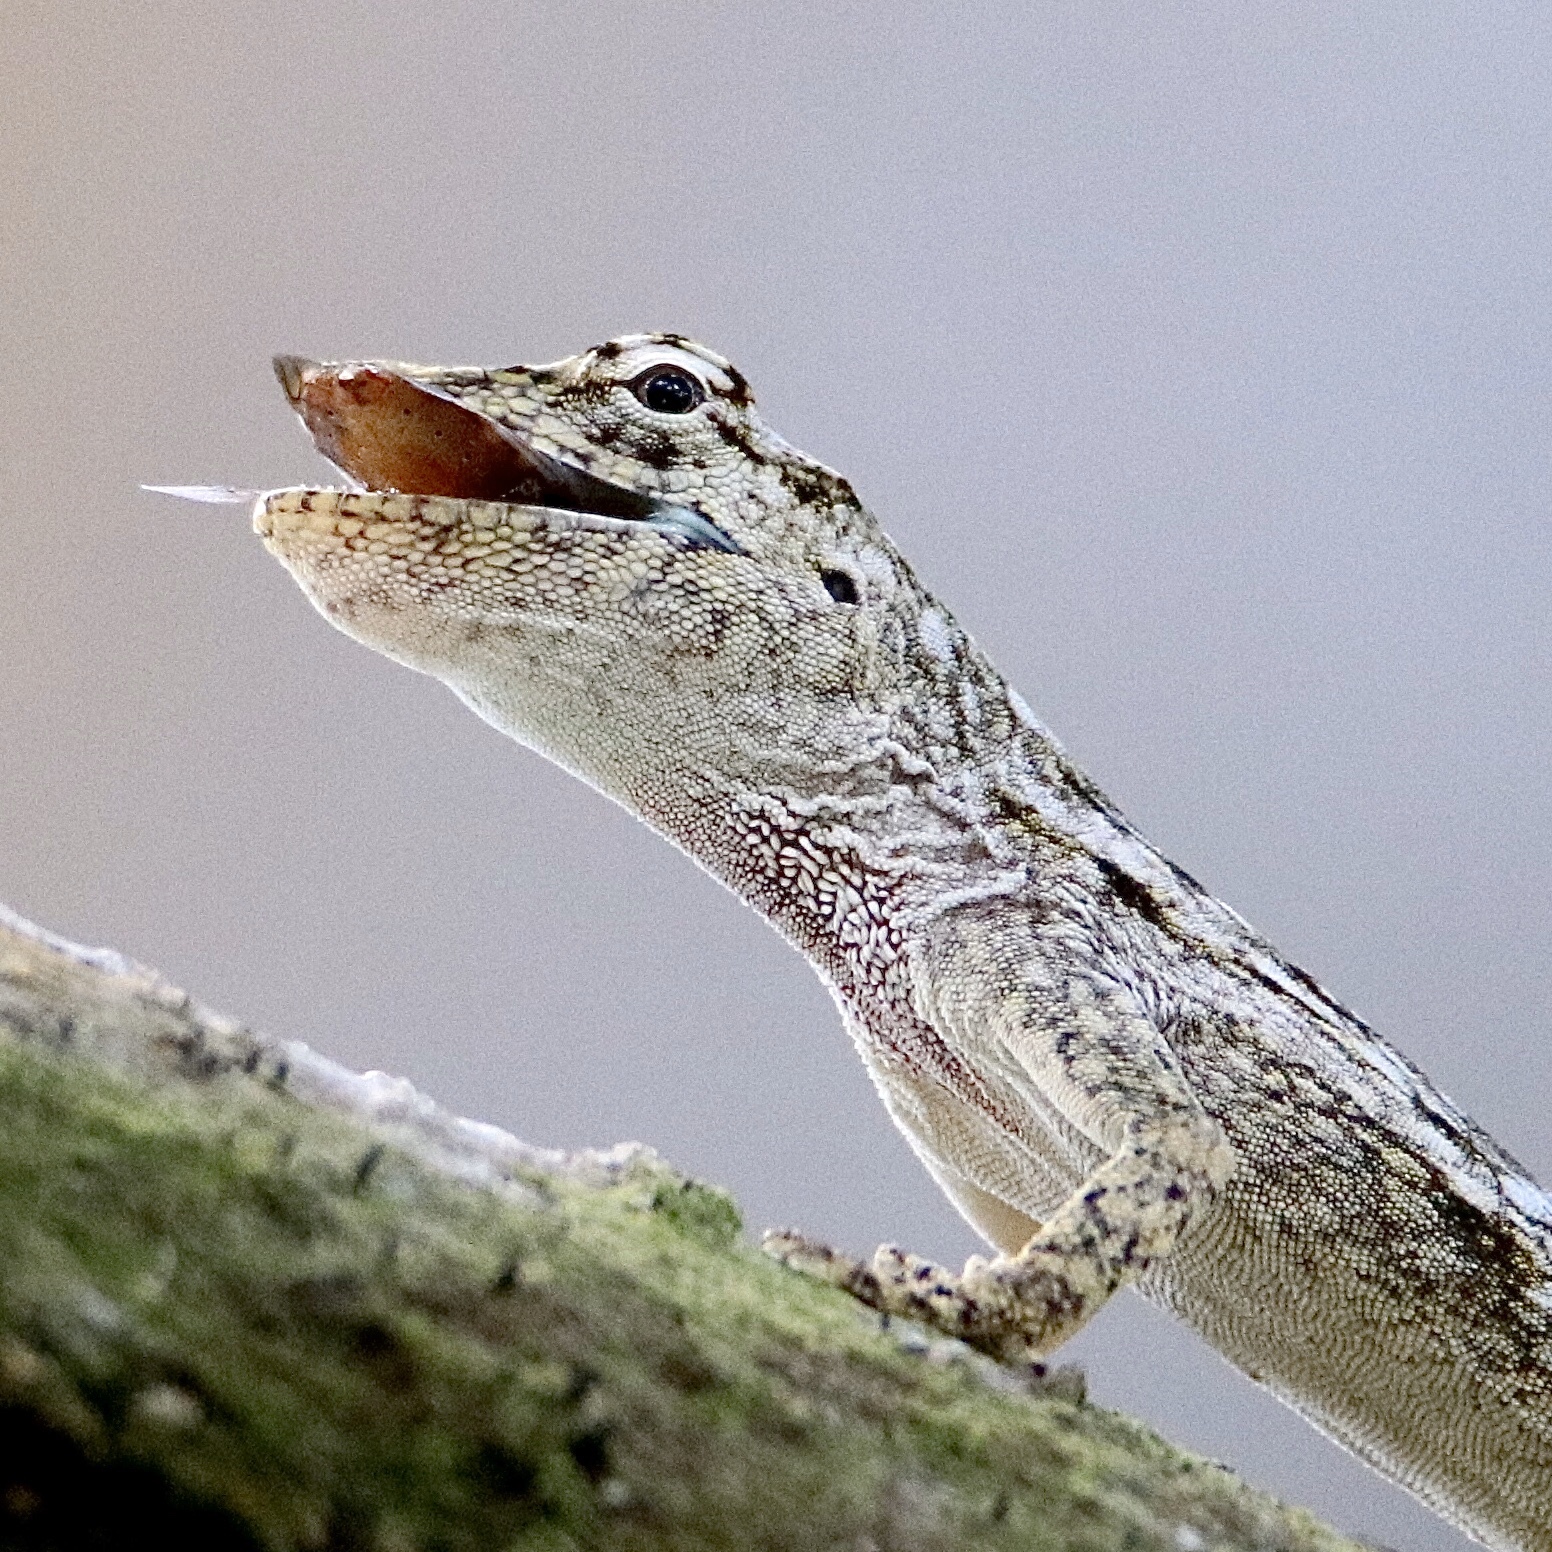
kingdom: Animalia
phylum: Chordata
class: Squamata
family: Dactyloidae
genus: Anolis
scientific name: Anolis pentaprion
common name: Lichen anole
